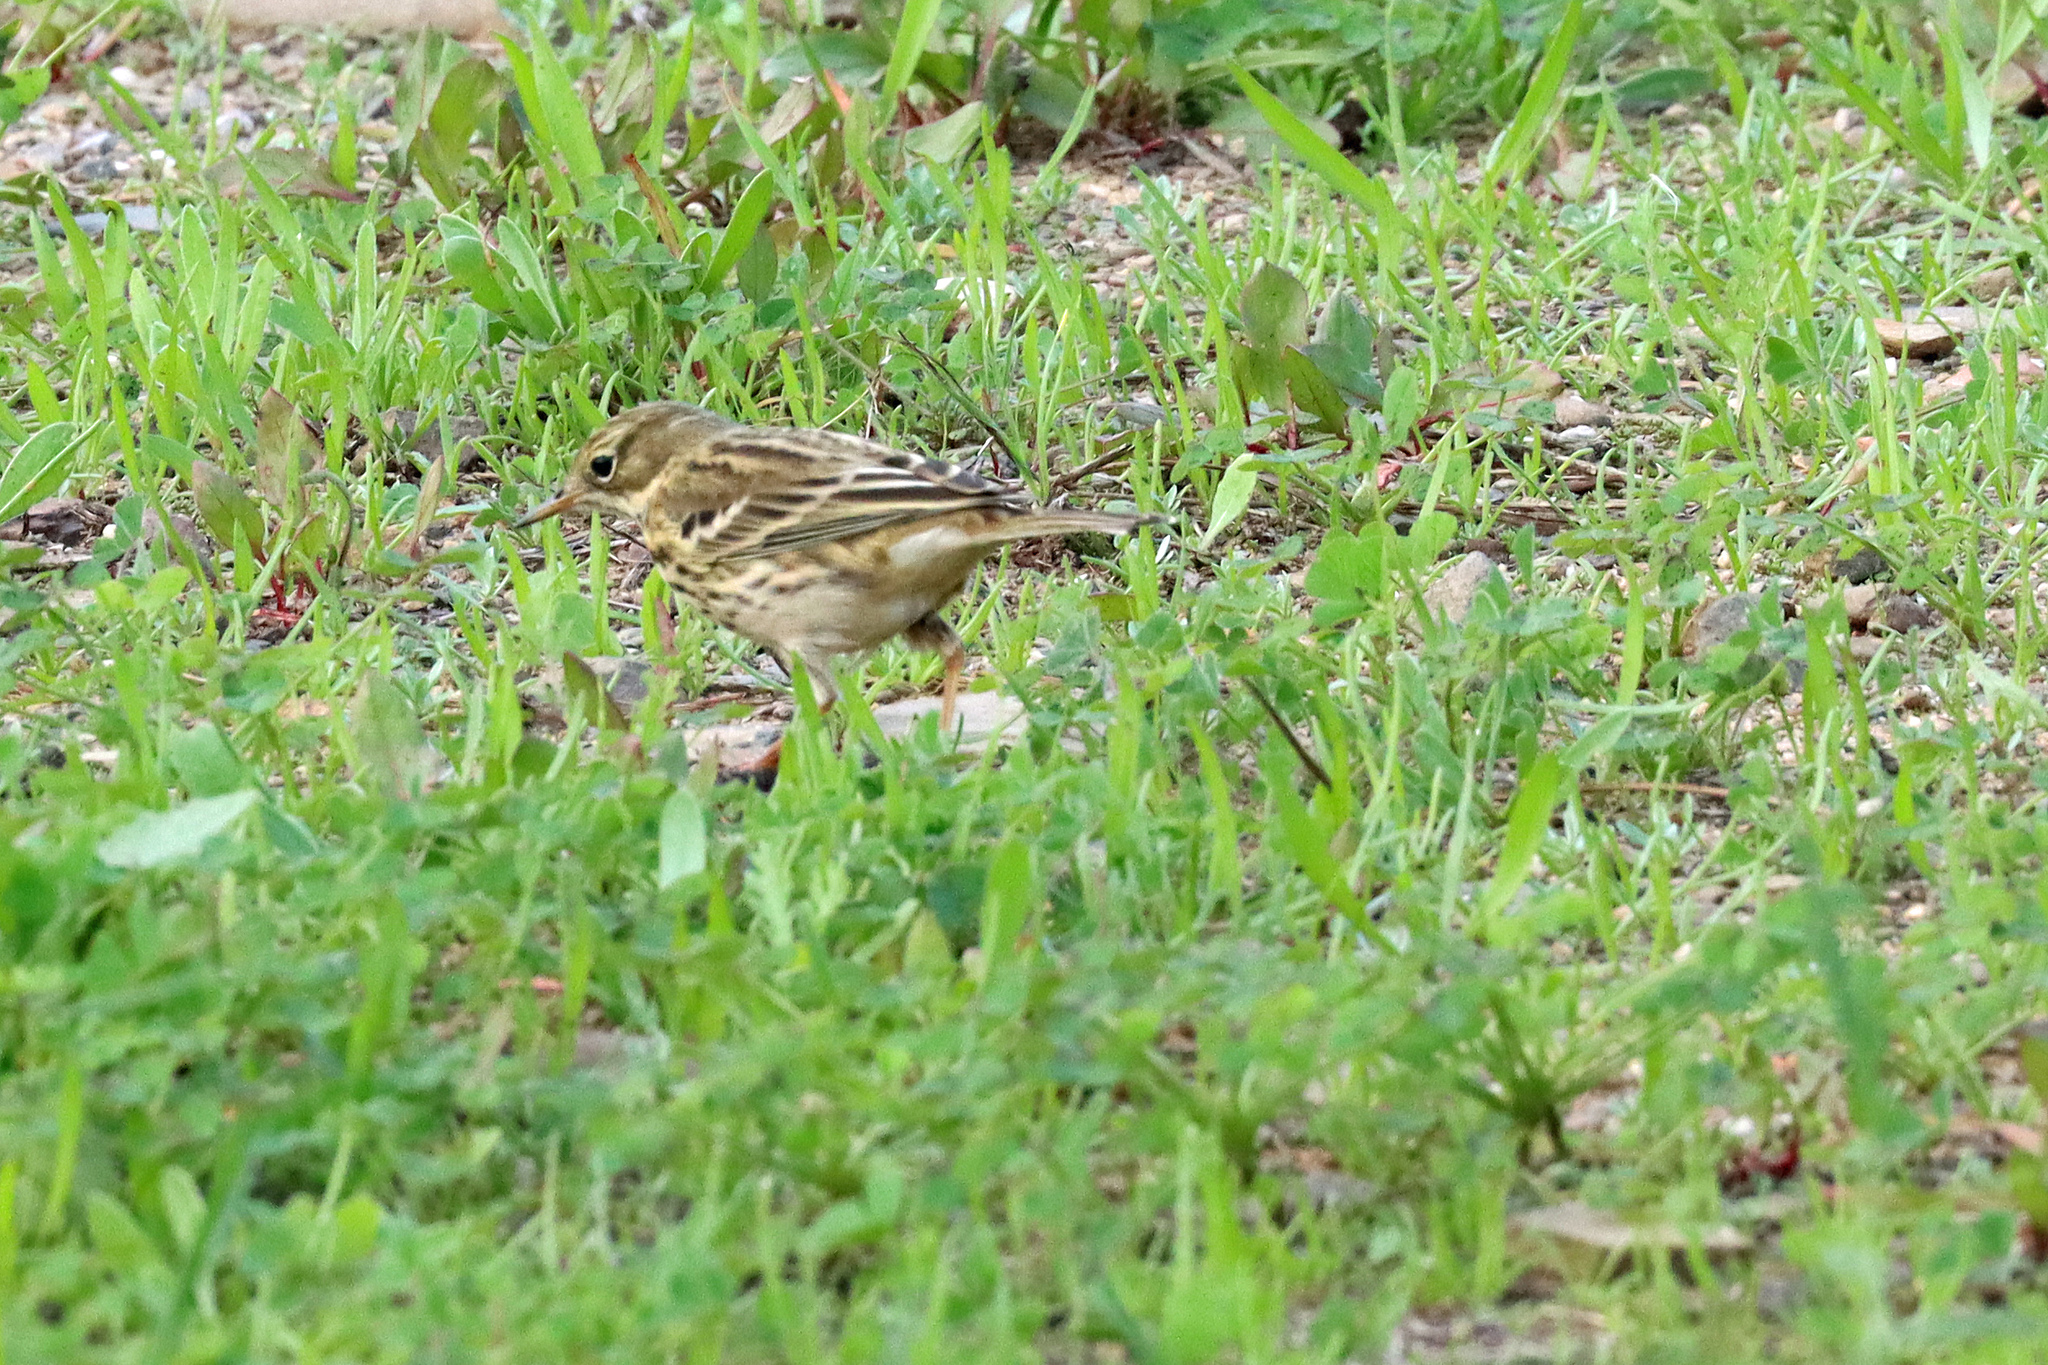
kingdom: Animalia
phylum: Chordata
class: Aves
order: Passeriformes
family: Motacillidae
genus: Anthus
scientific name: Anthus pratensis
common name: Meadow pipit
